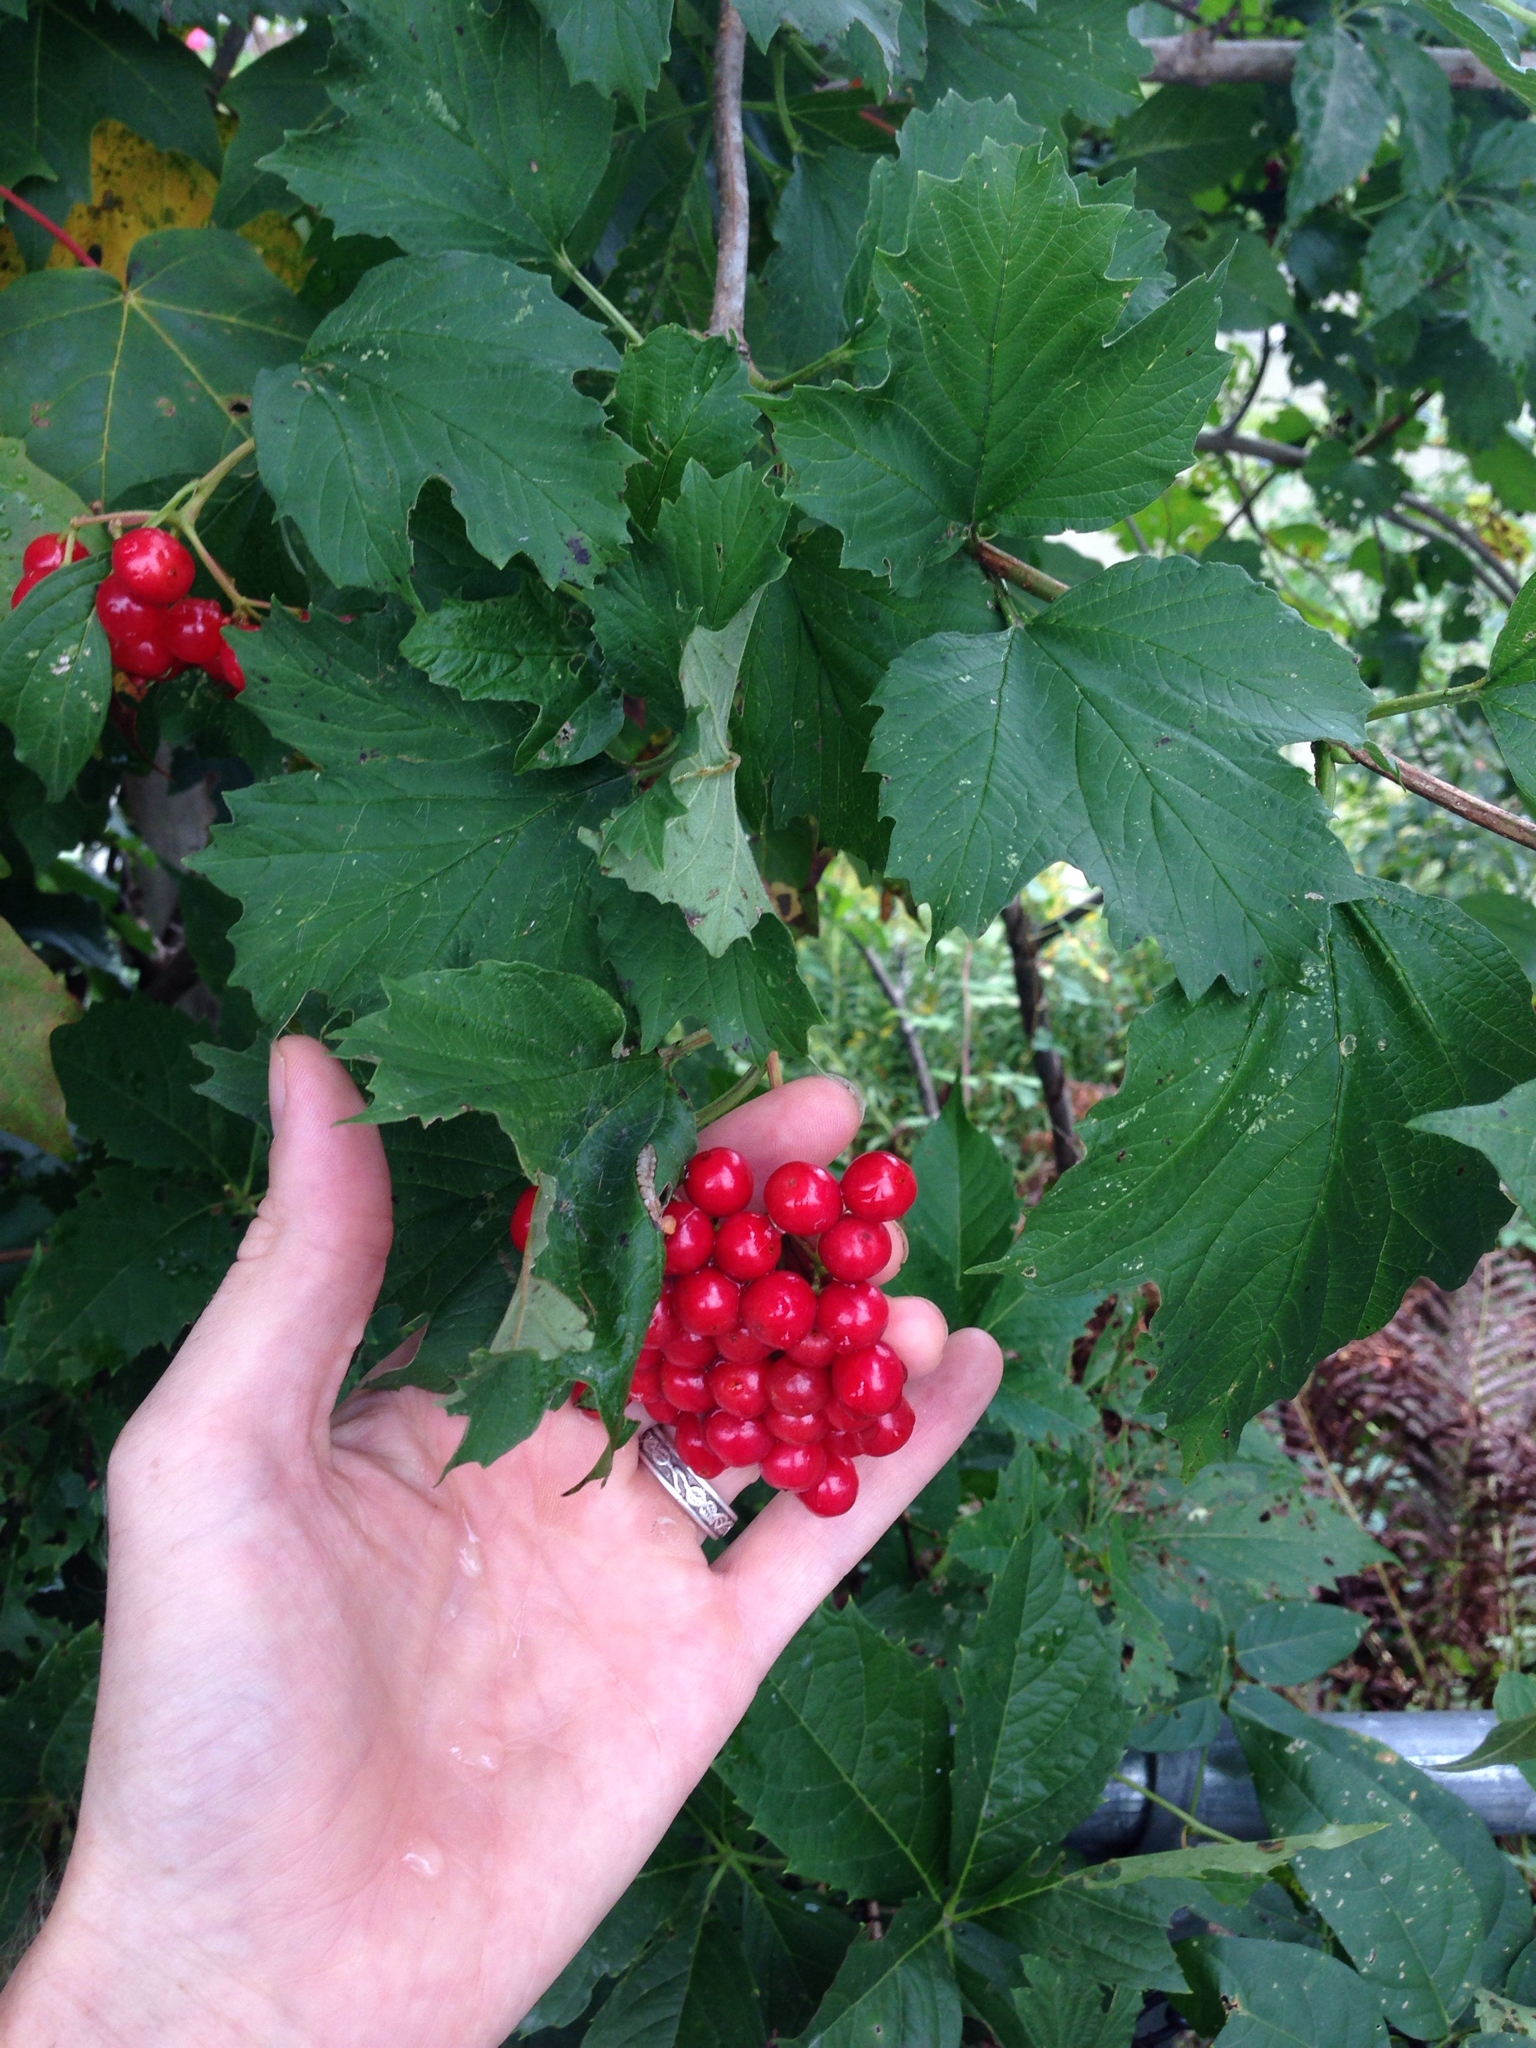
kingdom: Plantae
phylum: Tracheophyta
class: Magnoliopsida
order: Dipsacales
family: Viburnaceae
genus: Viburnum
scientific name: Viburnum opulus
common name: Guelder-rose
